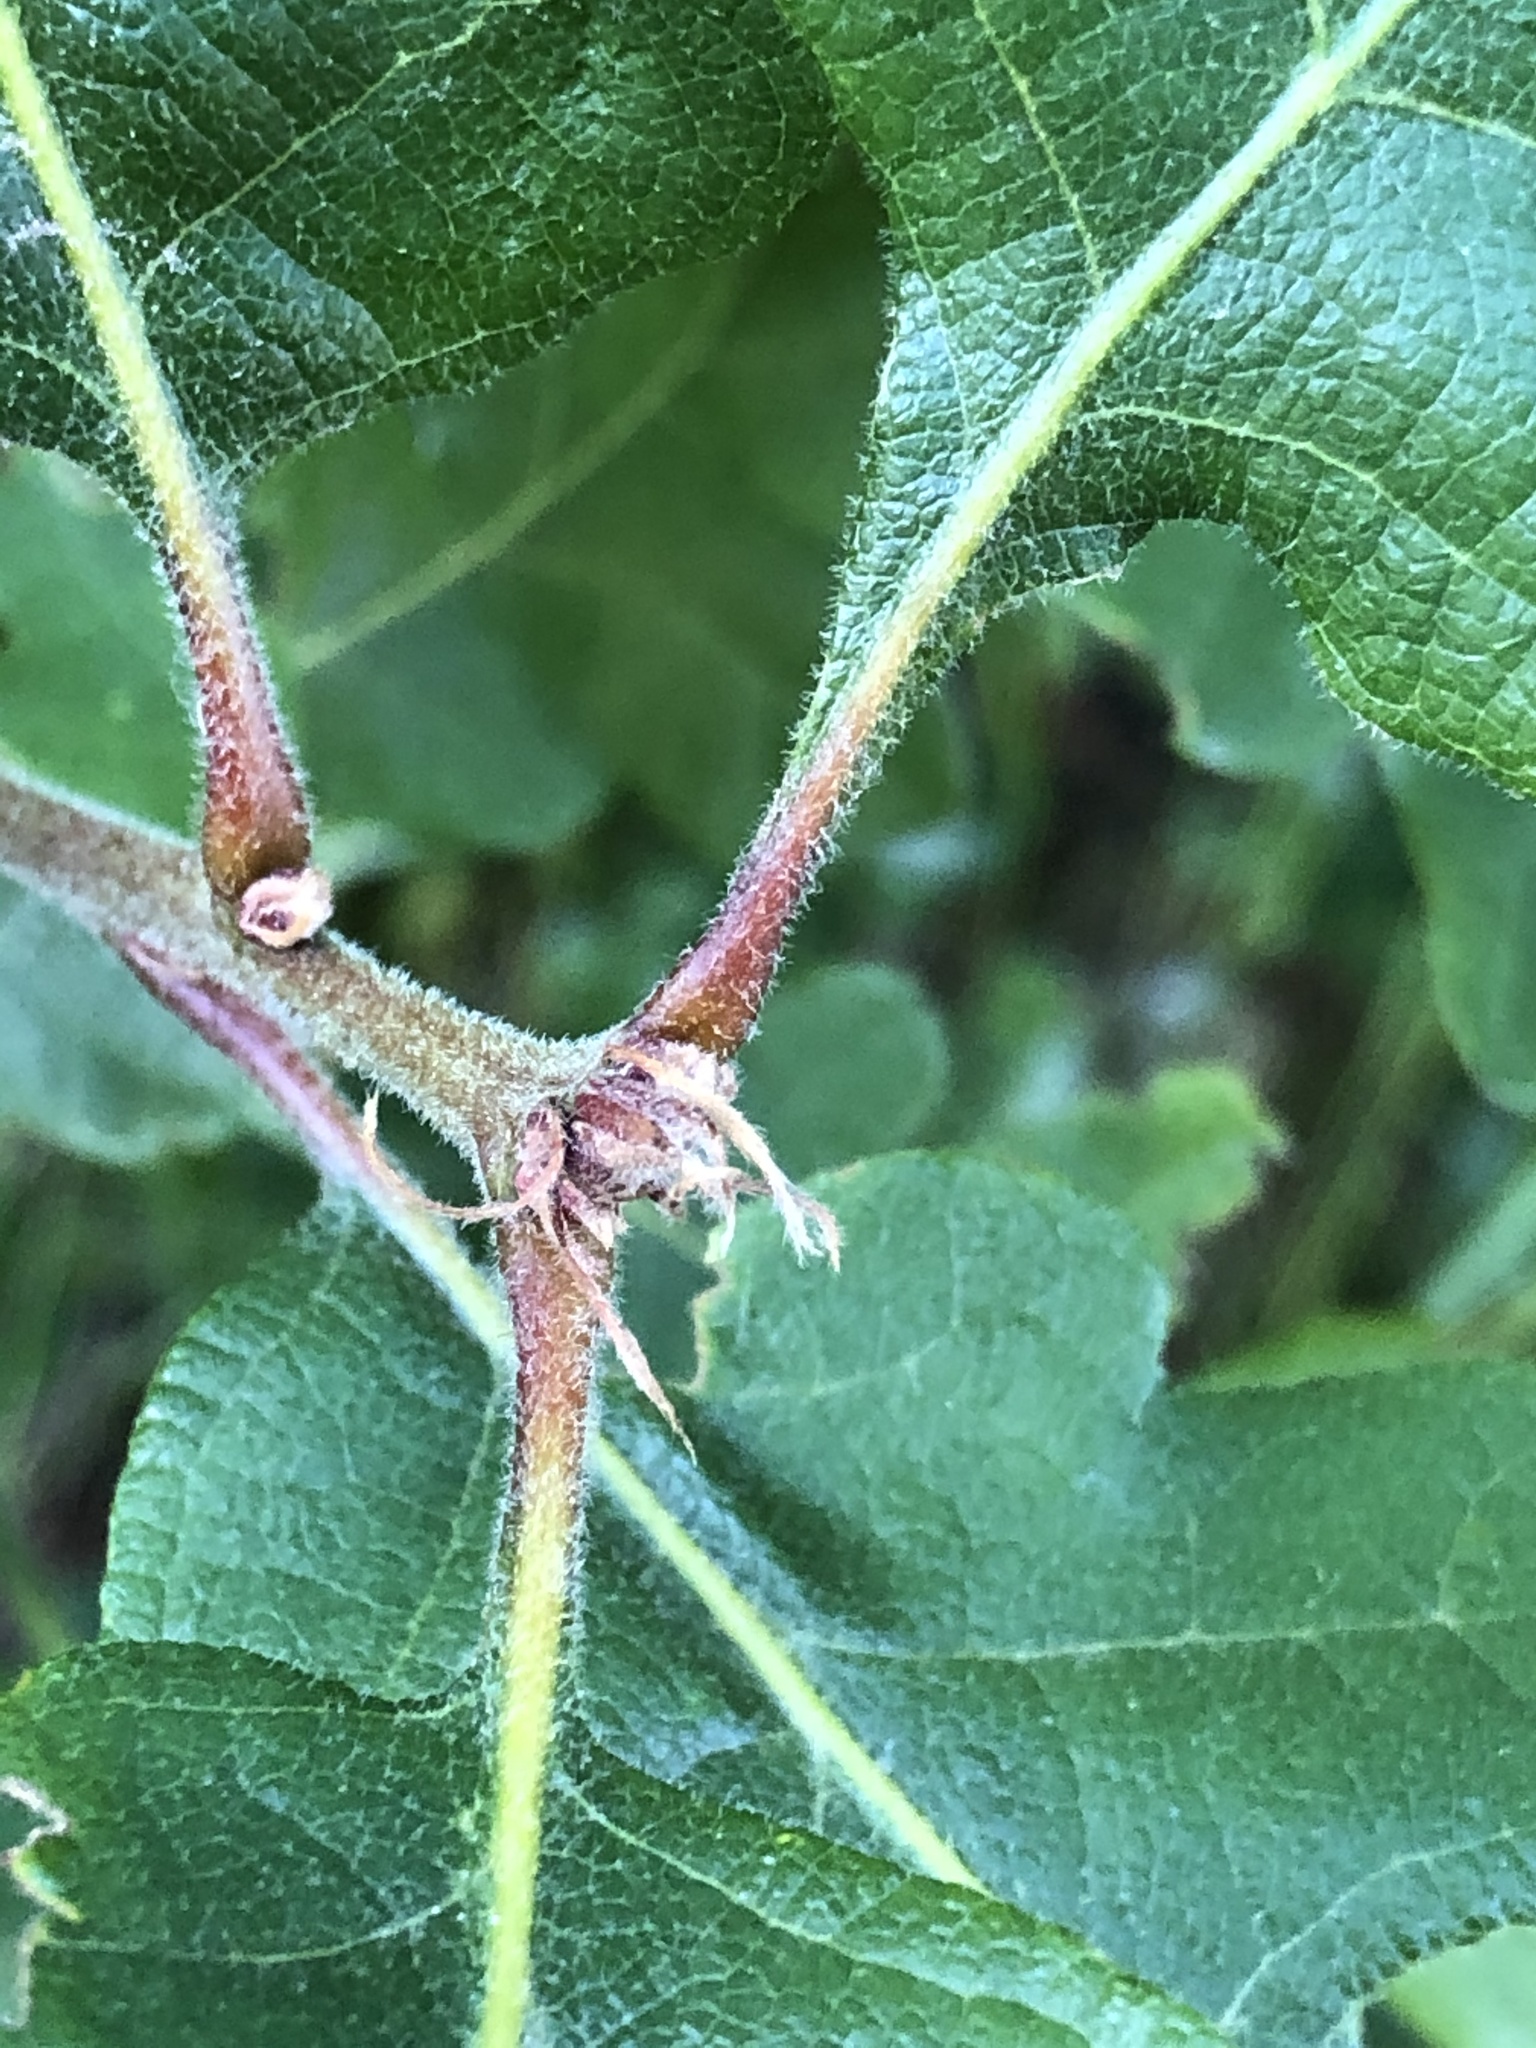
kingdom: Plantae
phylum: Tracheophyta
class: Magnoliopsida
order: Fagales
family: Fagaceae
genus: Quercus
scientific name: Quercus garryana
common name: Garry oak
